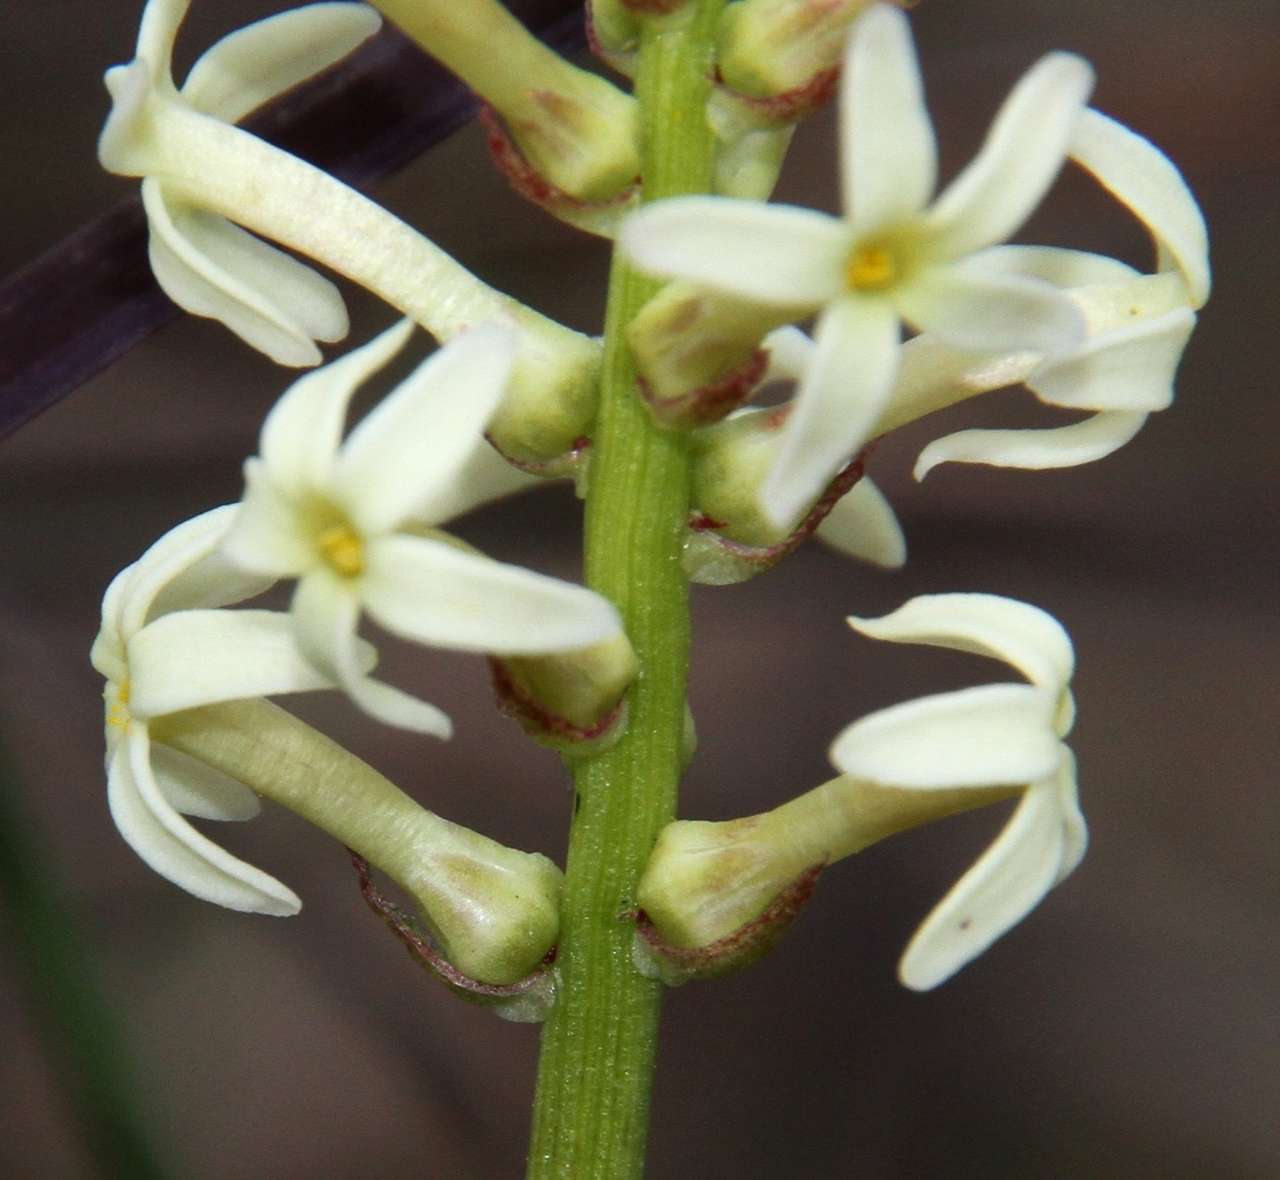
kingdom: Plantae
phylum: Tracheophyta
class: Magnoliopsida
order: Celastrales
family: Celastraceae
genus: Stackhousia
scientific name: Stackhousia subterranea
